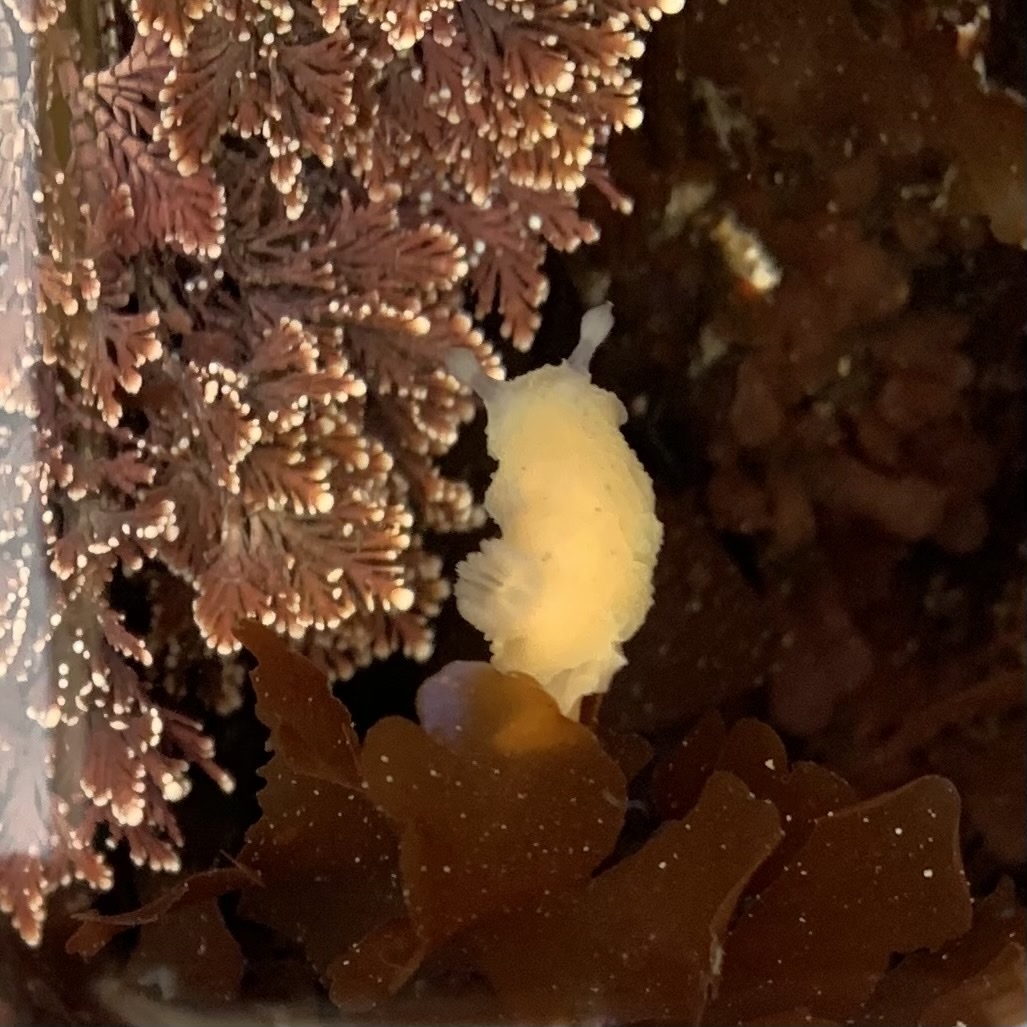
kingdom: Animalia
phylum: Mollusca
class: Gastropoda
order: Nudibranchia
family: Actinocyclidae
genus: Hallaxa
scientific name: Hallaxa chani
